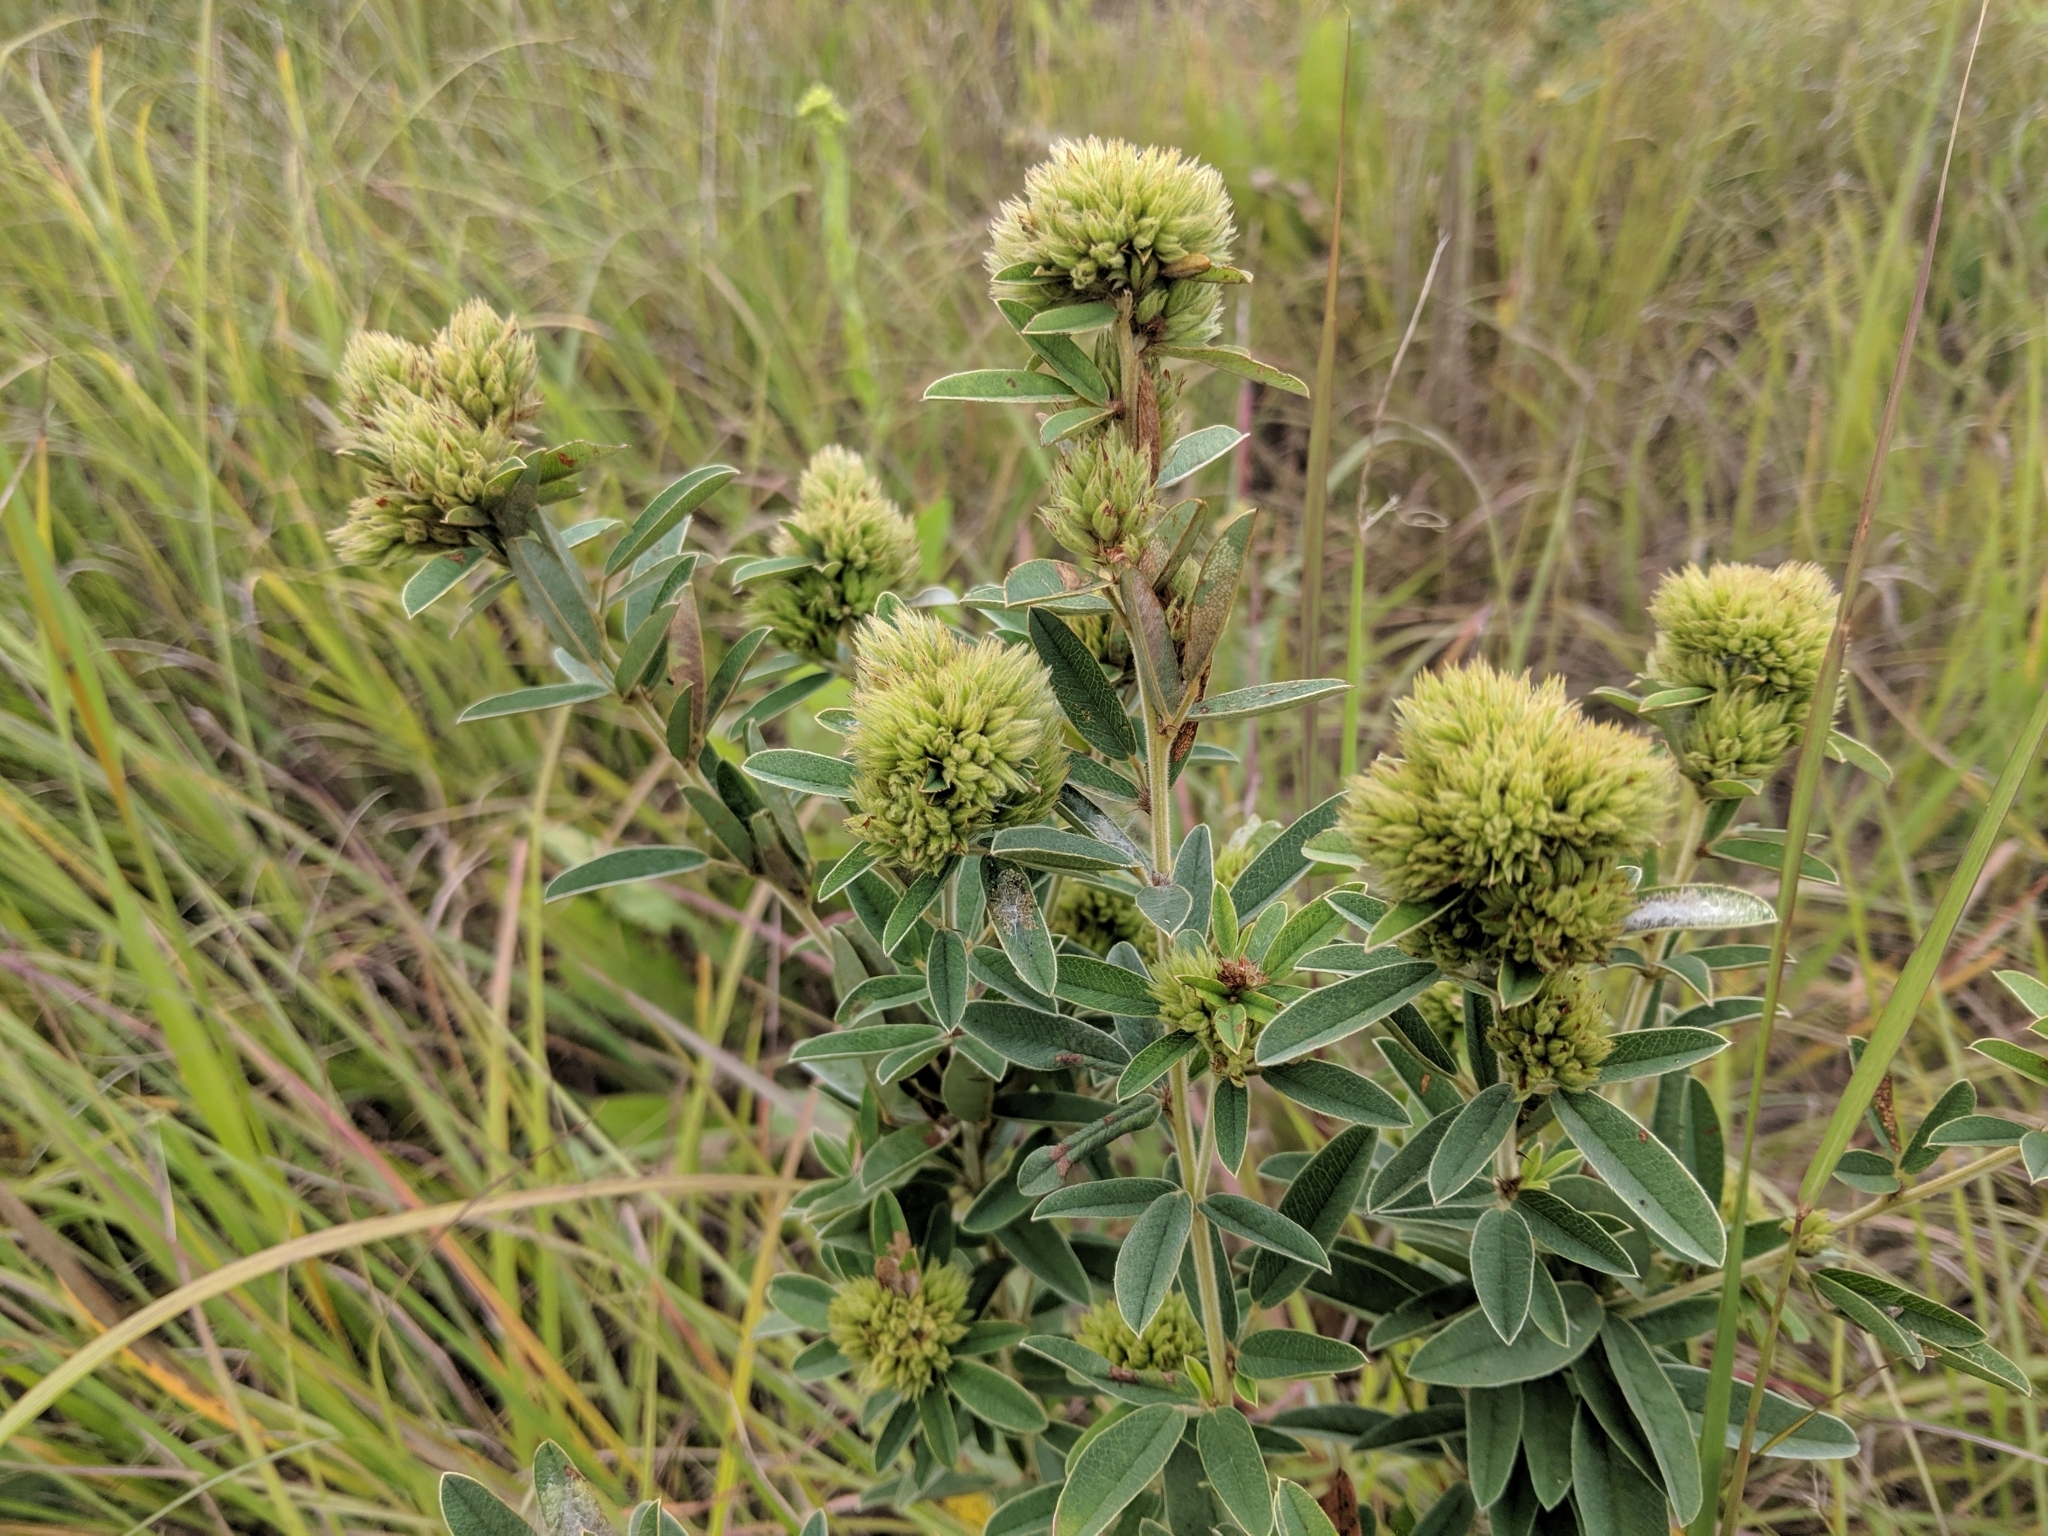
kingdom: Plantae
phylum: Tracheophyta
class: Magnoliopsida
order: Fabales
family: Fabaceae
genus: Lespedeza
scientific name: Lespedeza capitata
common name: Dusty clover
